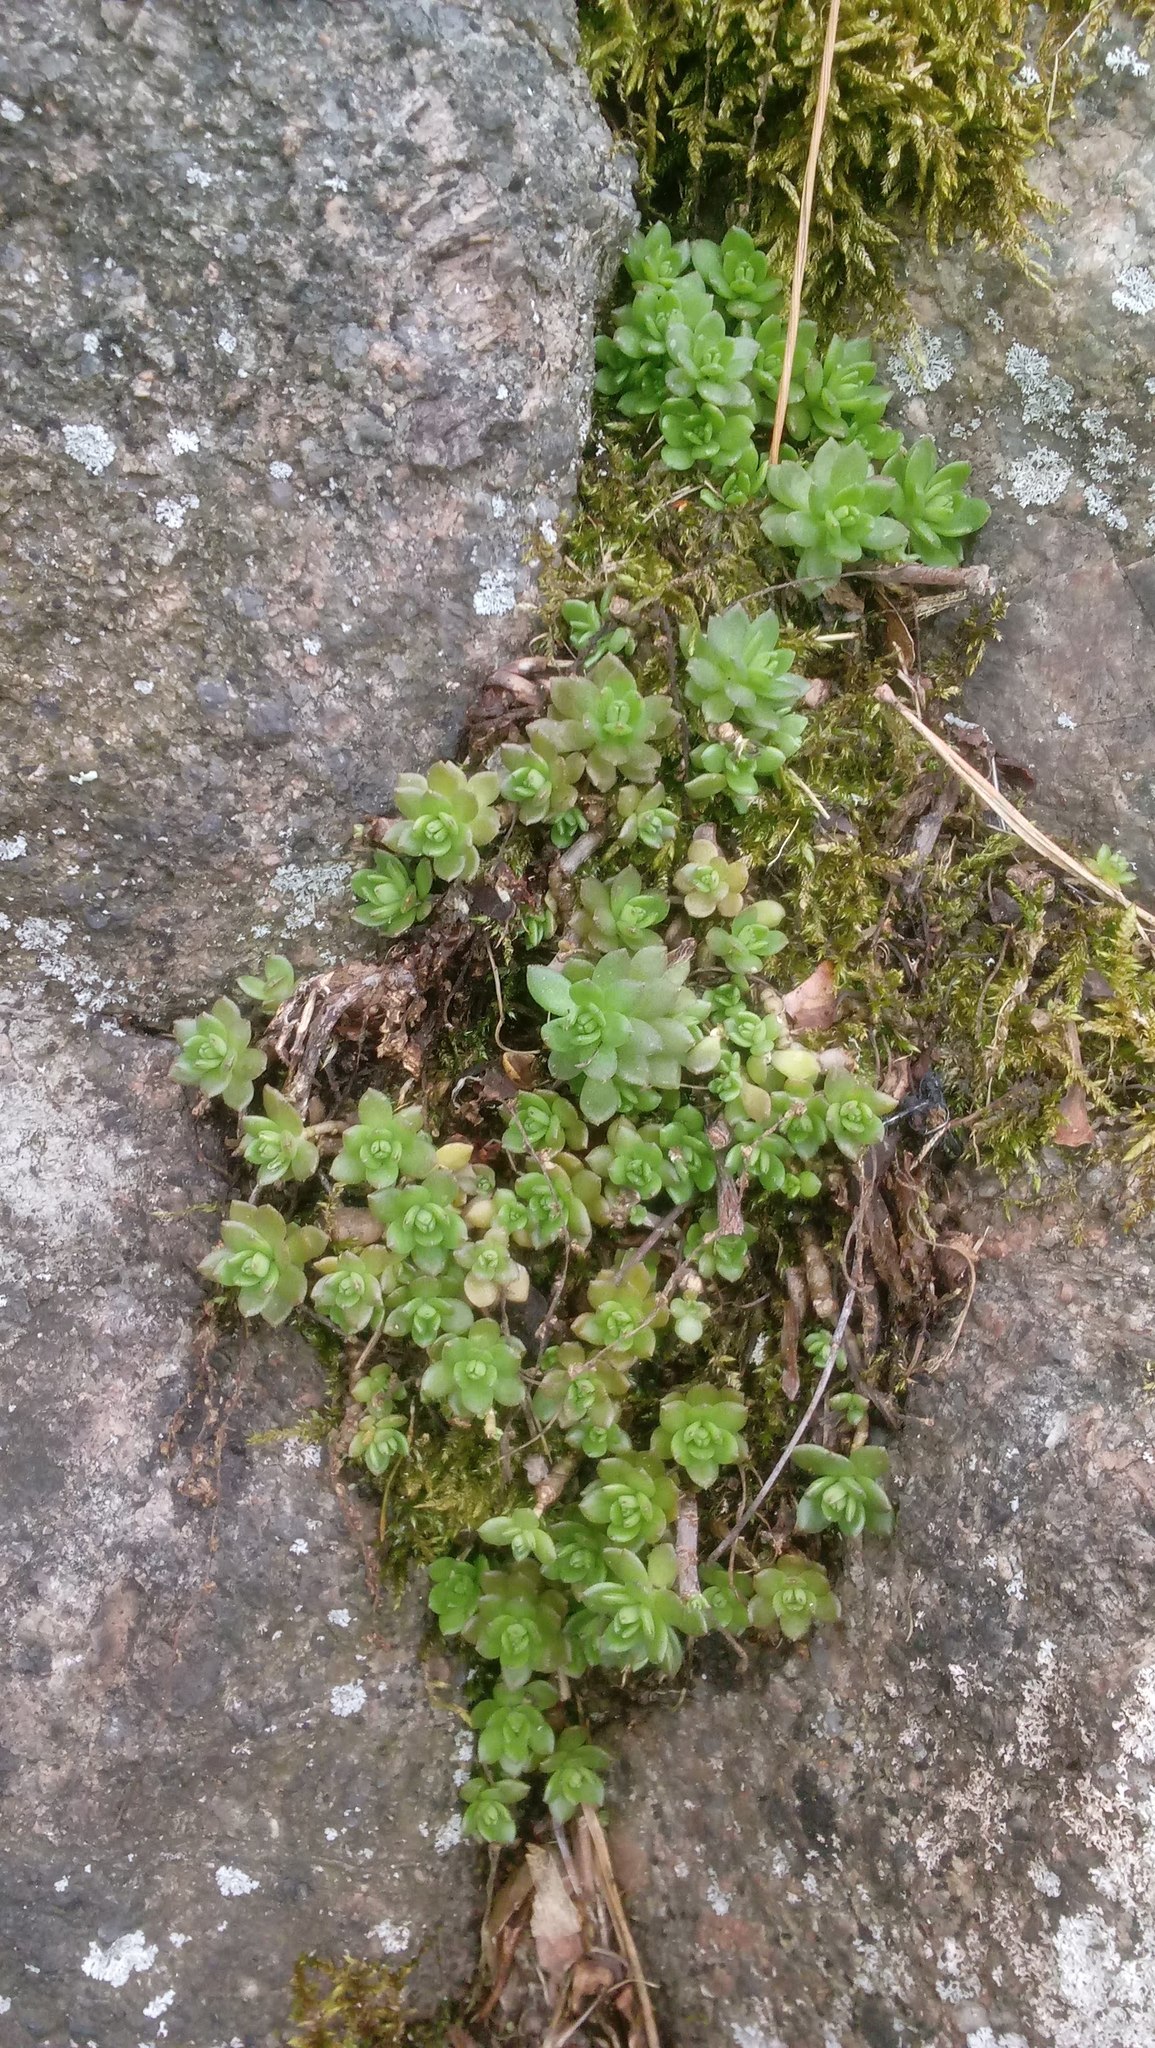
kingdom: Plantae
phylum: Tracheophyta
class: Magnoliopsida
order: Saxifragales
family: Crassulaceae
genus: Sedum
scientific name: Sedum sarmentosum
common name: Stringy stonecrop
